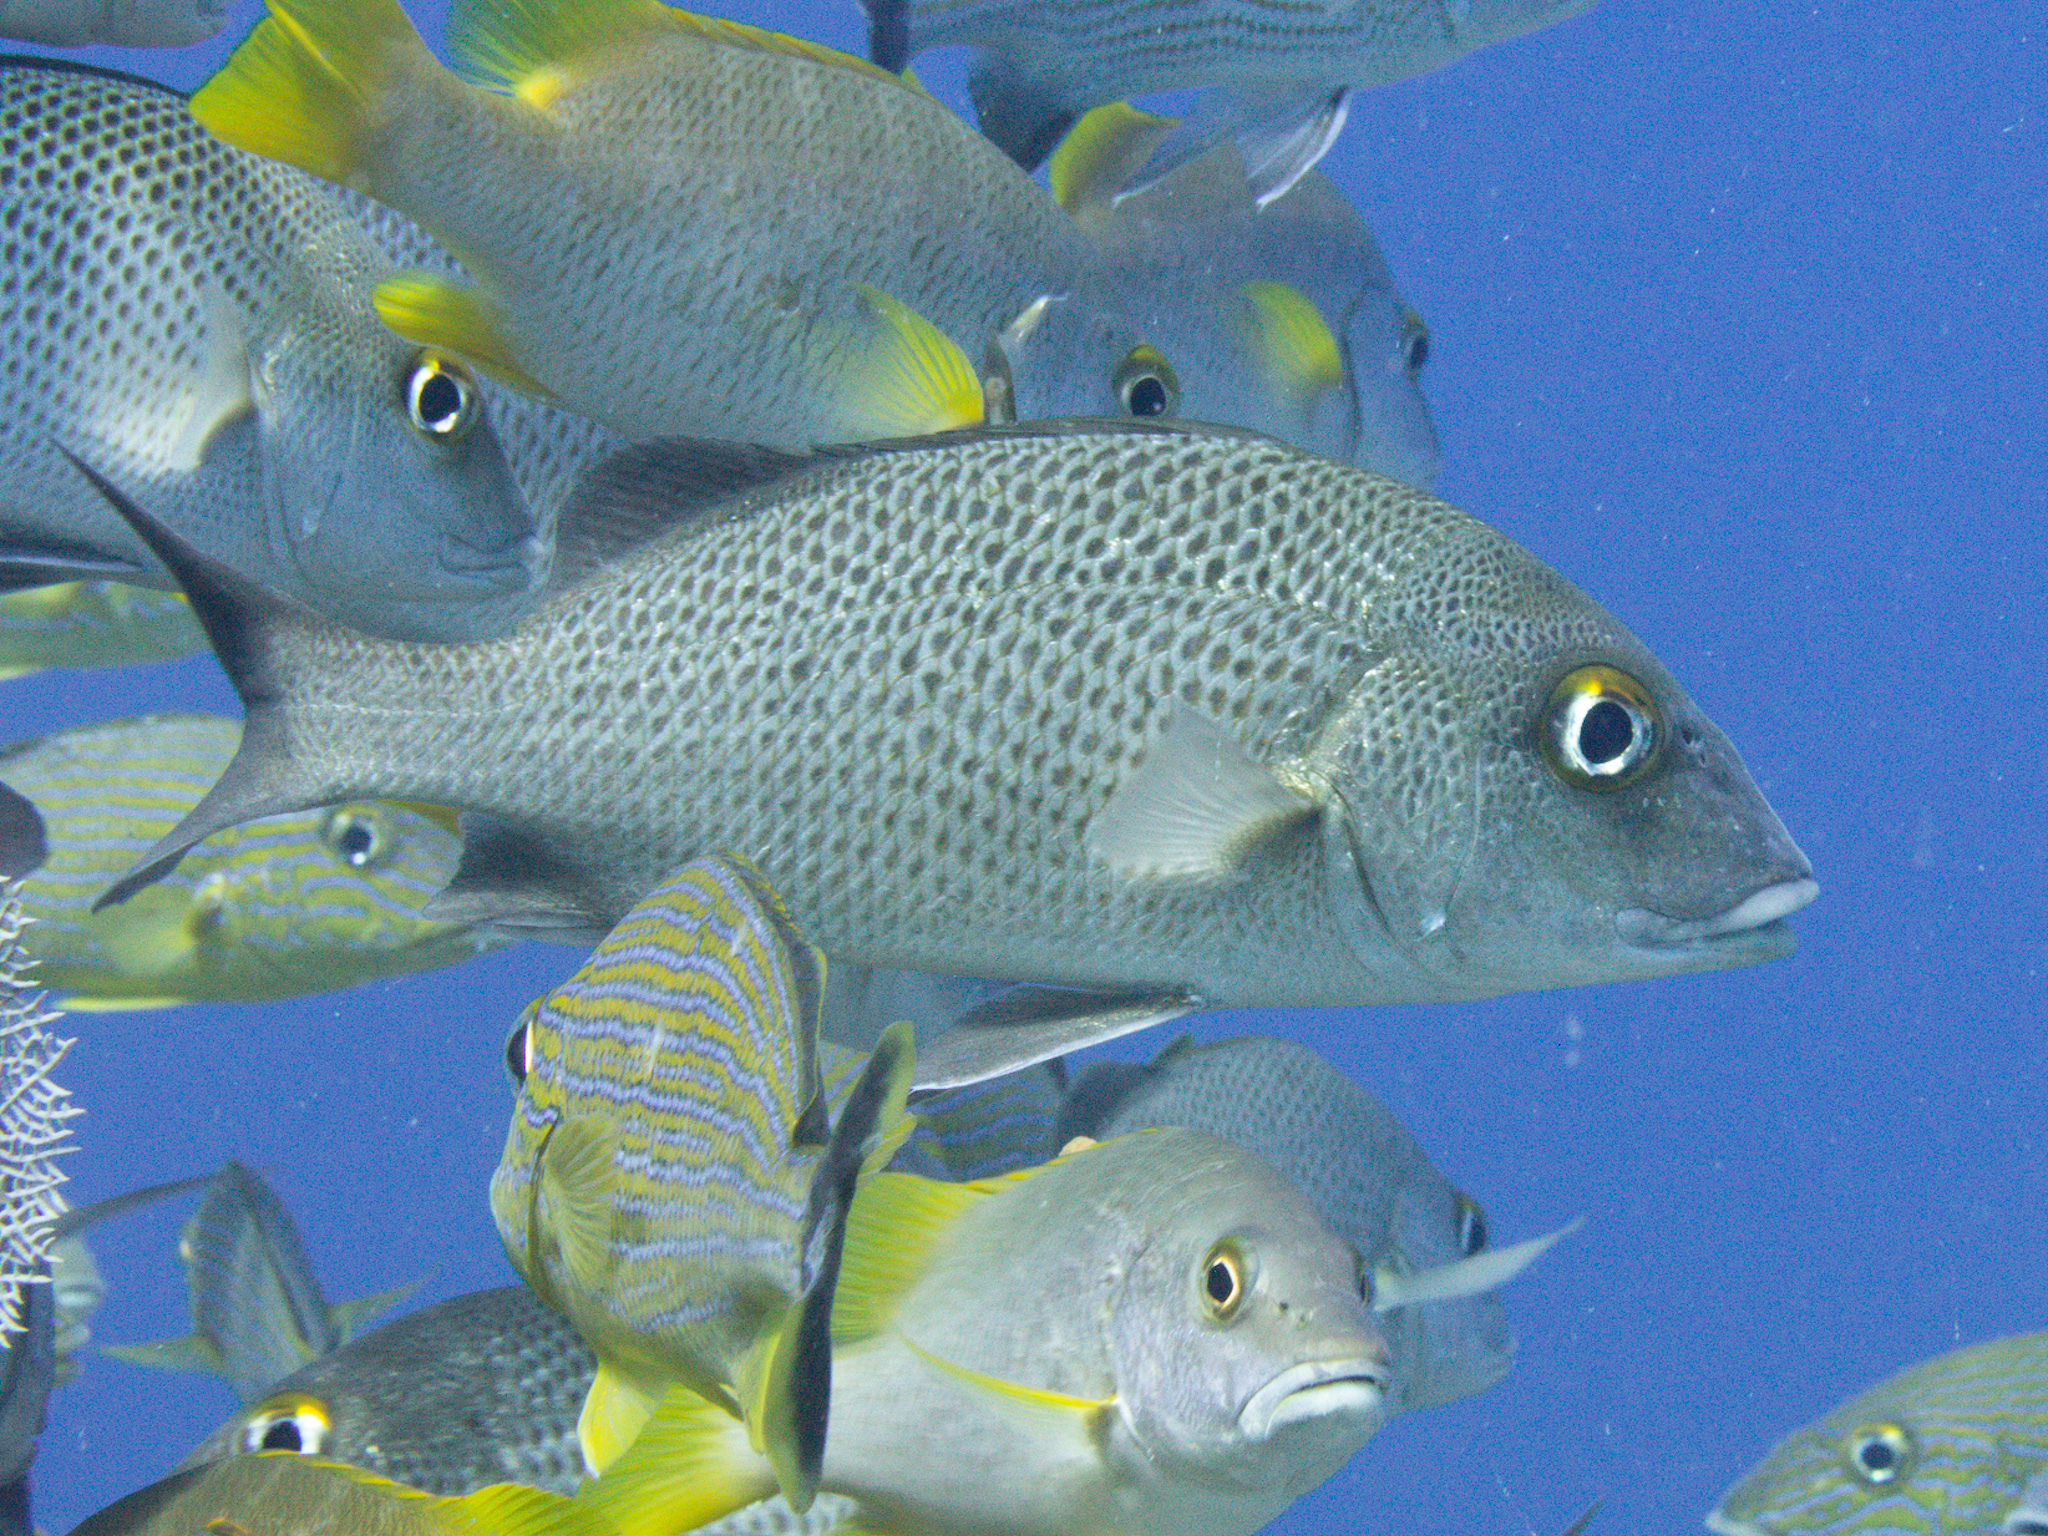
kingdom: Animalia
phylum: Chordata
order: Perciformes
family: Haemulidae
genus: Haemulon
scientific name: Haemulon parra
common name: Sailor's choice
